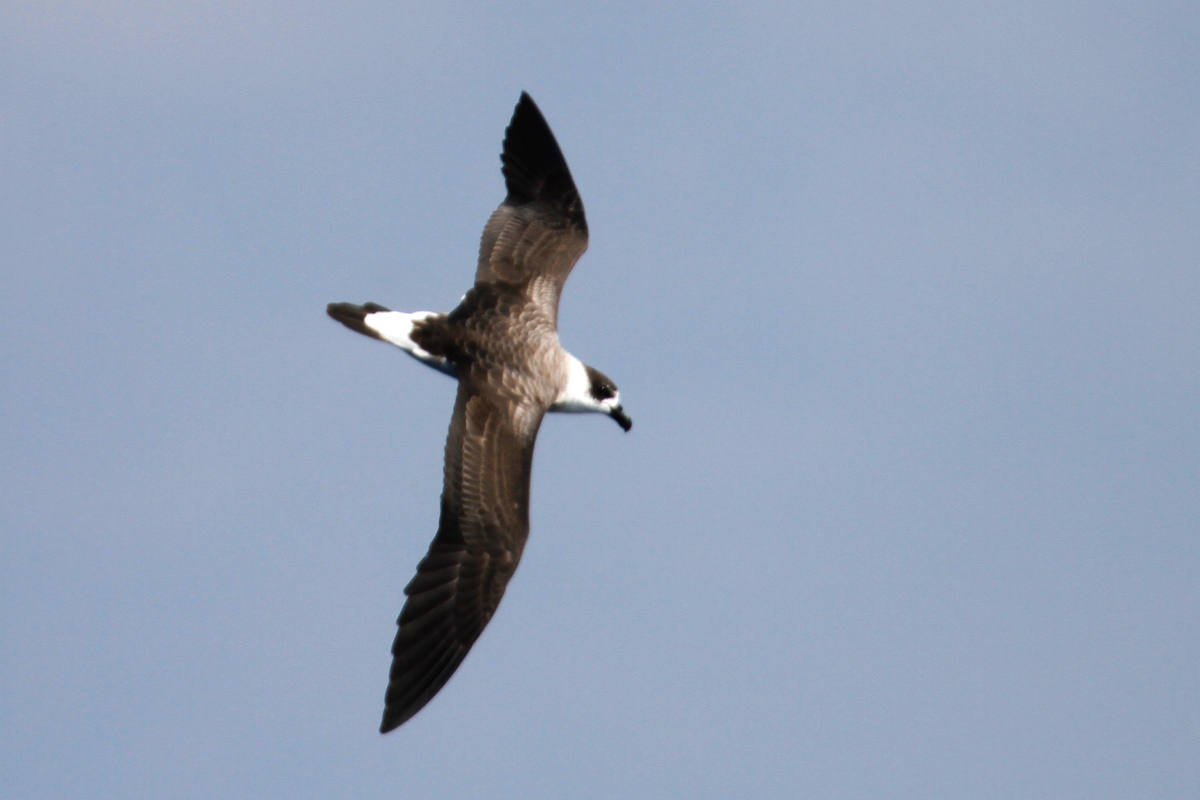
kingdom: Animalia
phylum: Chordata
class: Aves
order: Procellariiformes
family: Procellariidae
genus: Pterodroma
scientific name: Pterodroma hasitata
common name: Black-capped petrel
